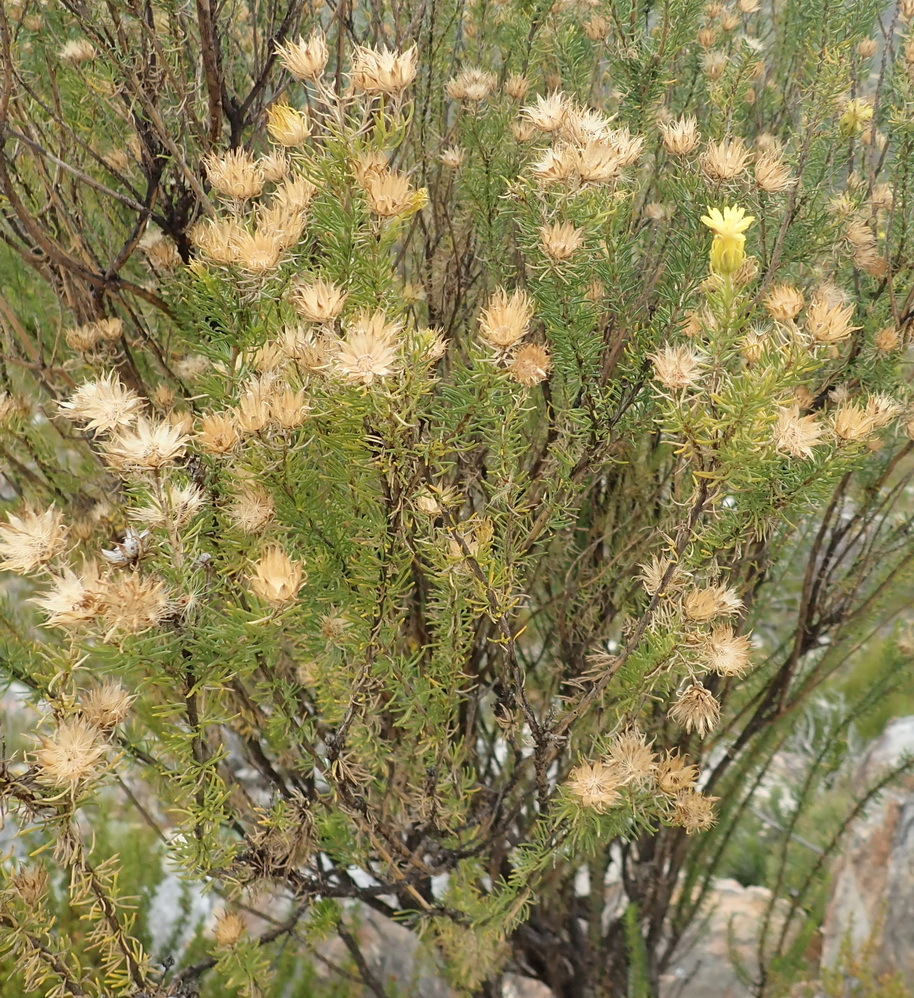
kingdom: Plantae
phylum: Tracheophyta
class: Magnoliopsida
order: Asterales
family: Asteraceae
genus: Pteronia
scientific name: Pteronia camphorata
